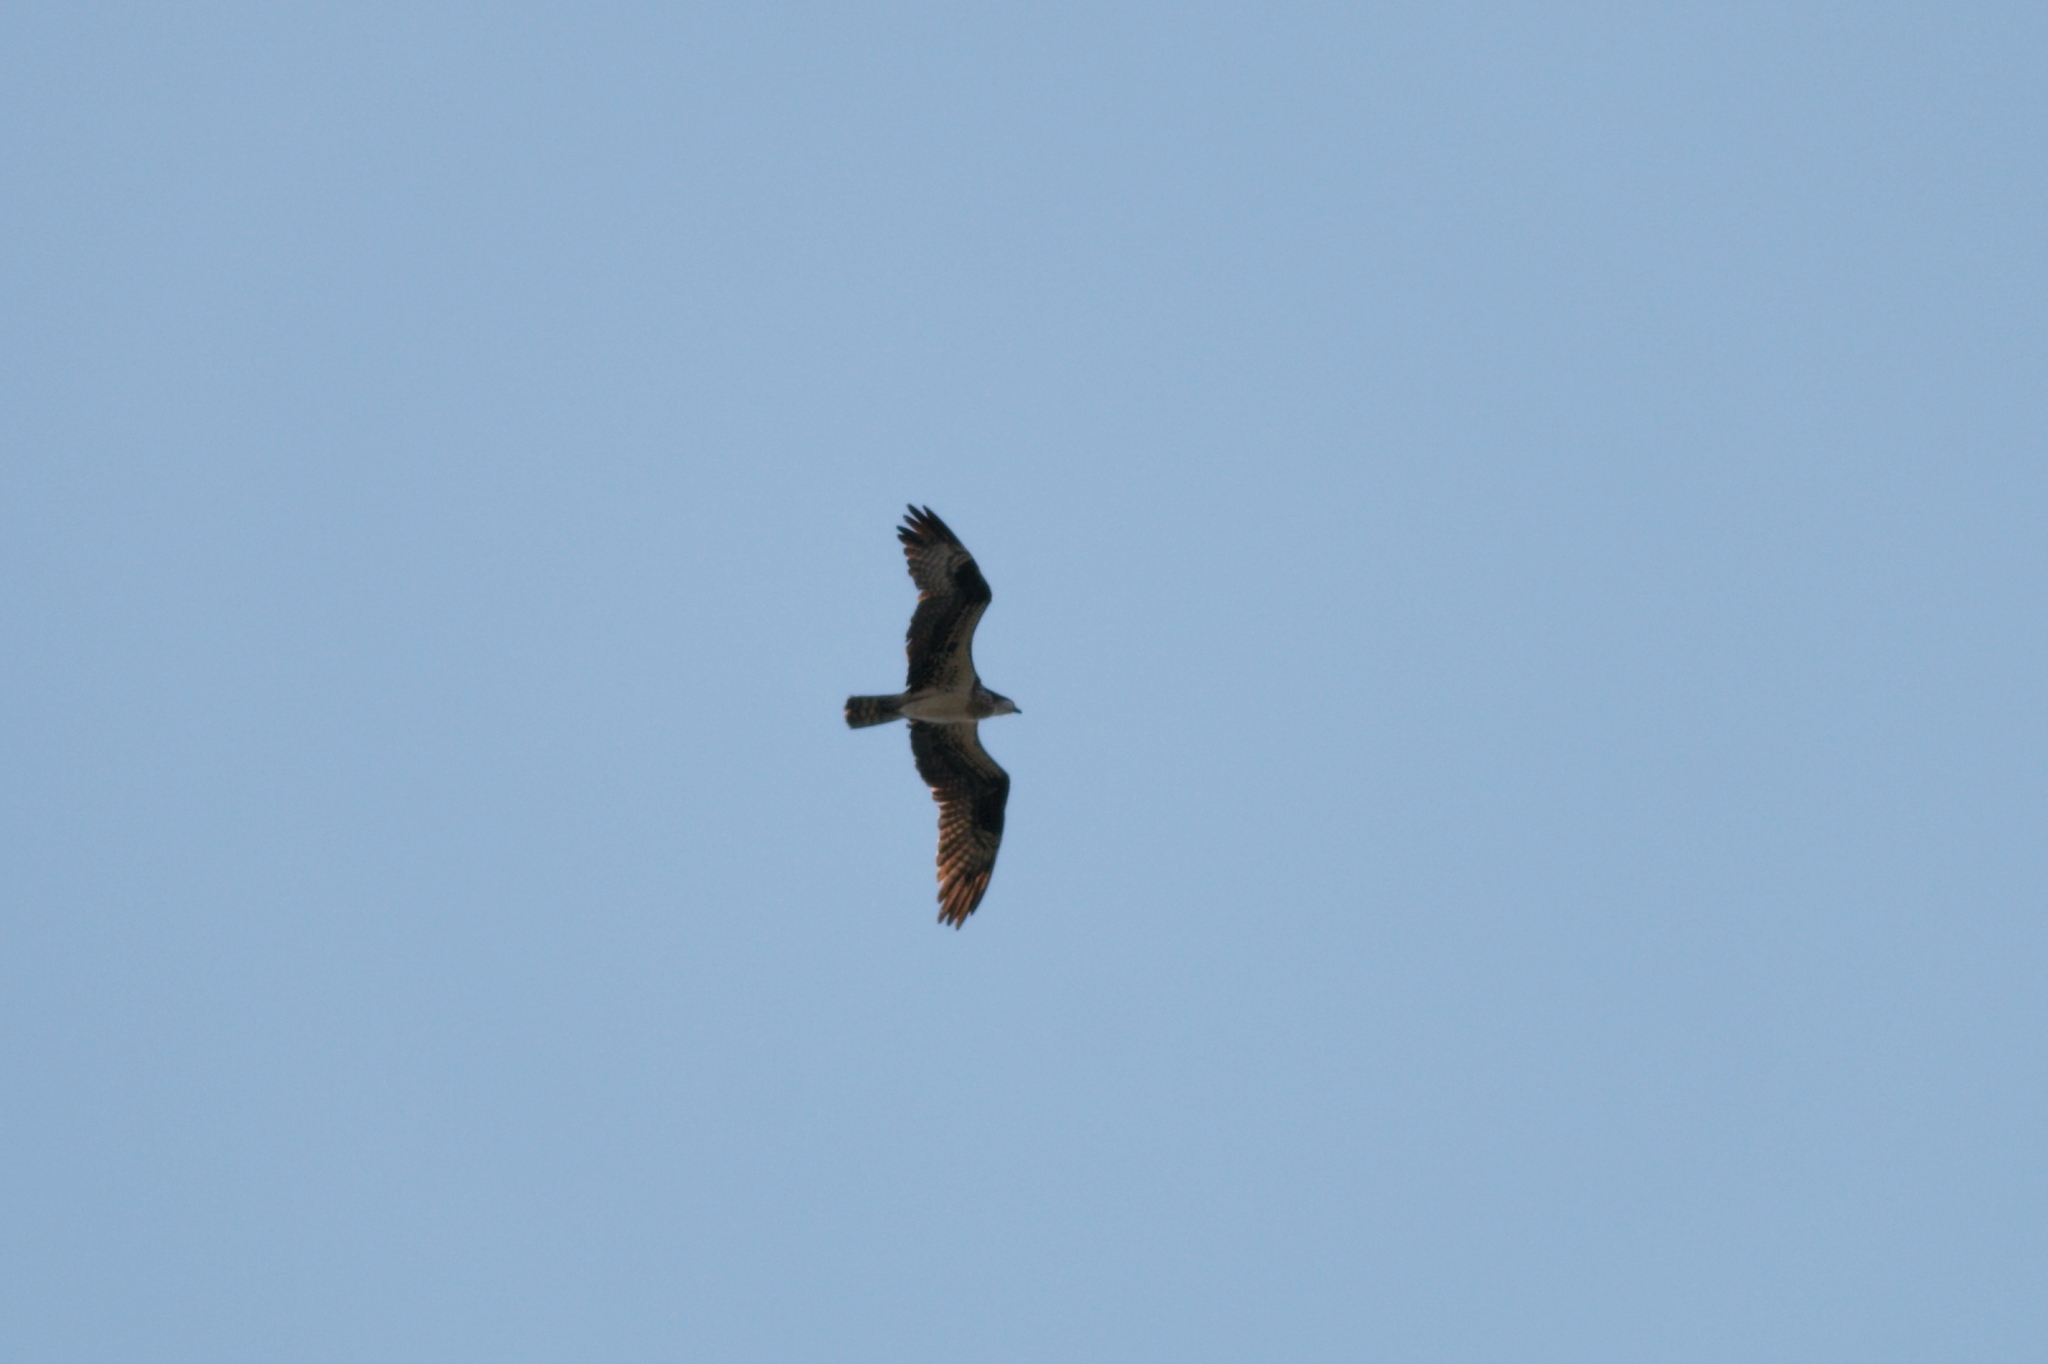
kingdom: Animalia
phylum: Chordata
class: Aves
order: Accipitriformes
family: Pandionidae
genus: Pandion
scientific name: Pandion haliaetus
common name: Osprey
